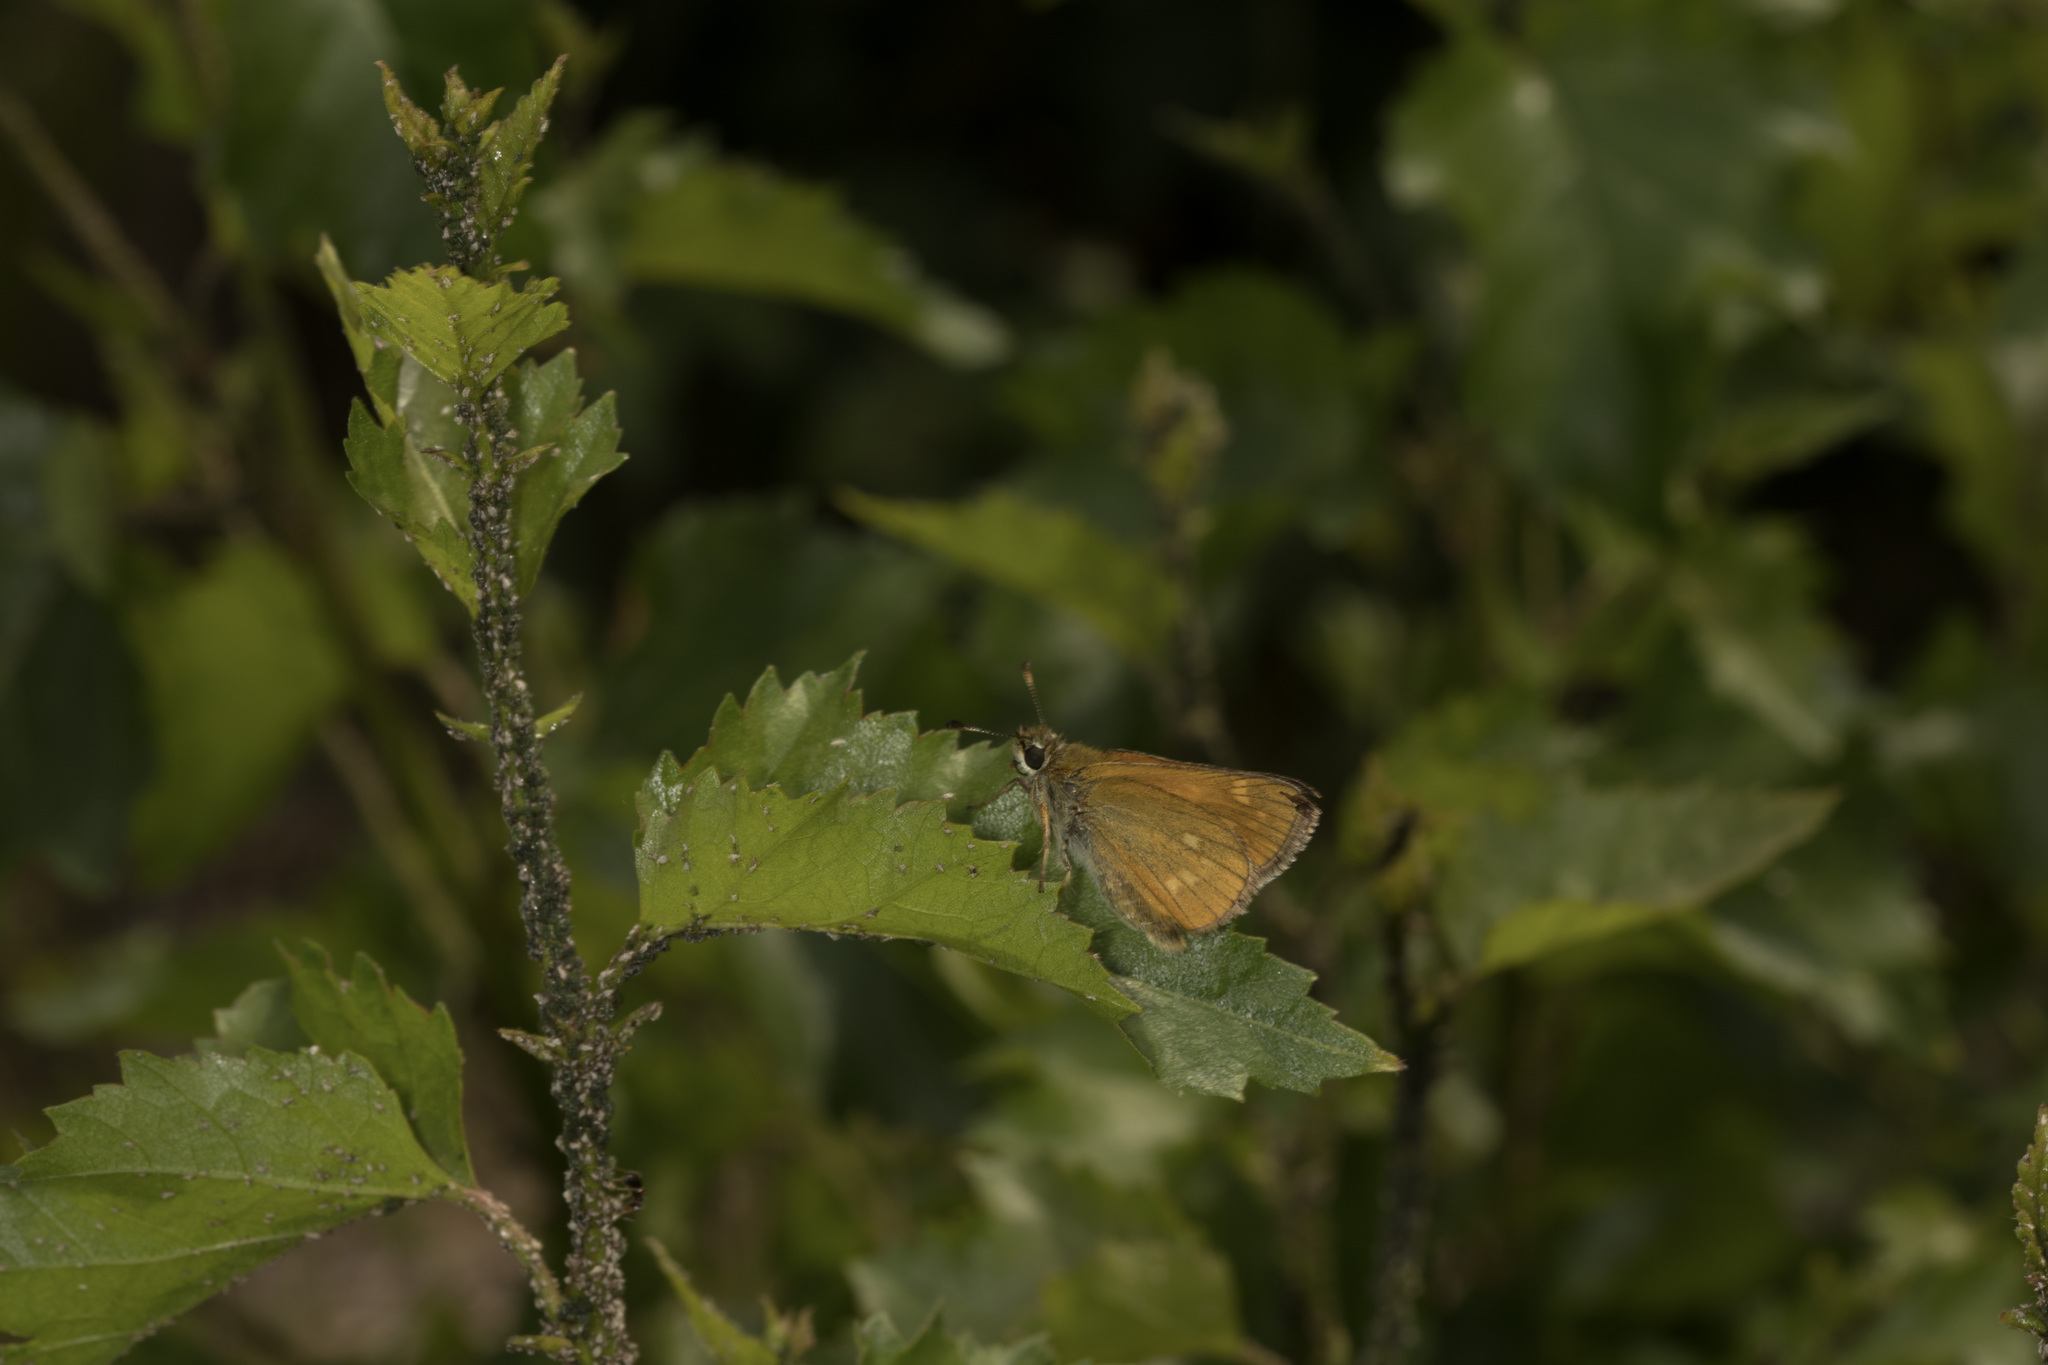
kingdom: Animalia
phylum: Arthropoda
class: Insecta
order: Lepidoptera
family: Hesperiidae
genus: Ochlodes
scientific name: Ochlodes venata
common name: Large skipper
